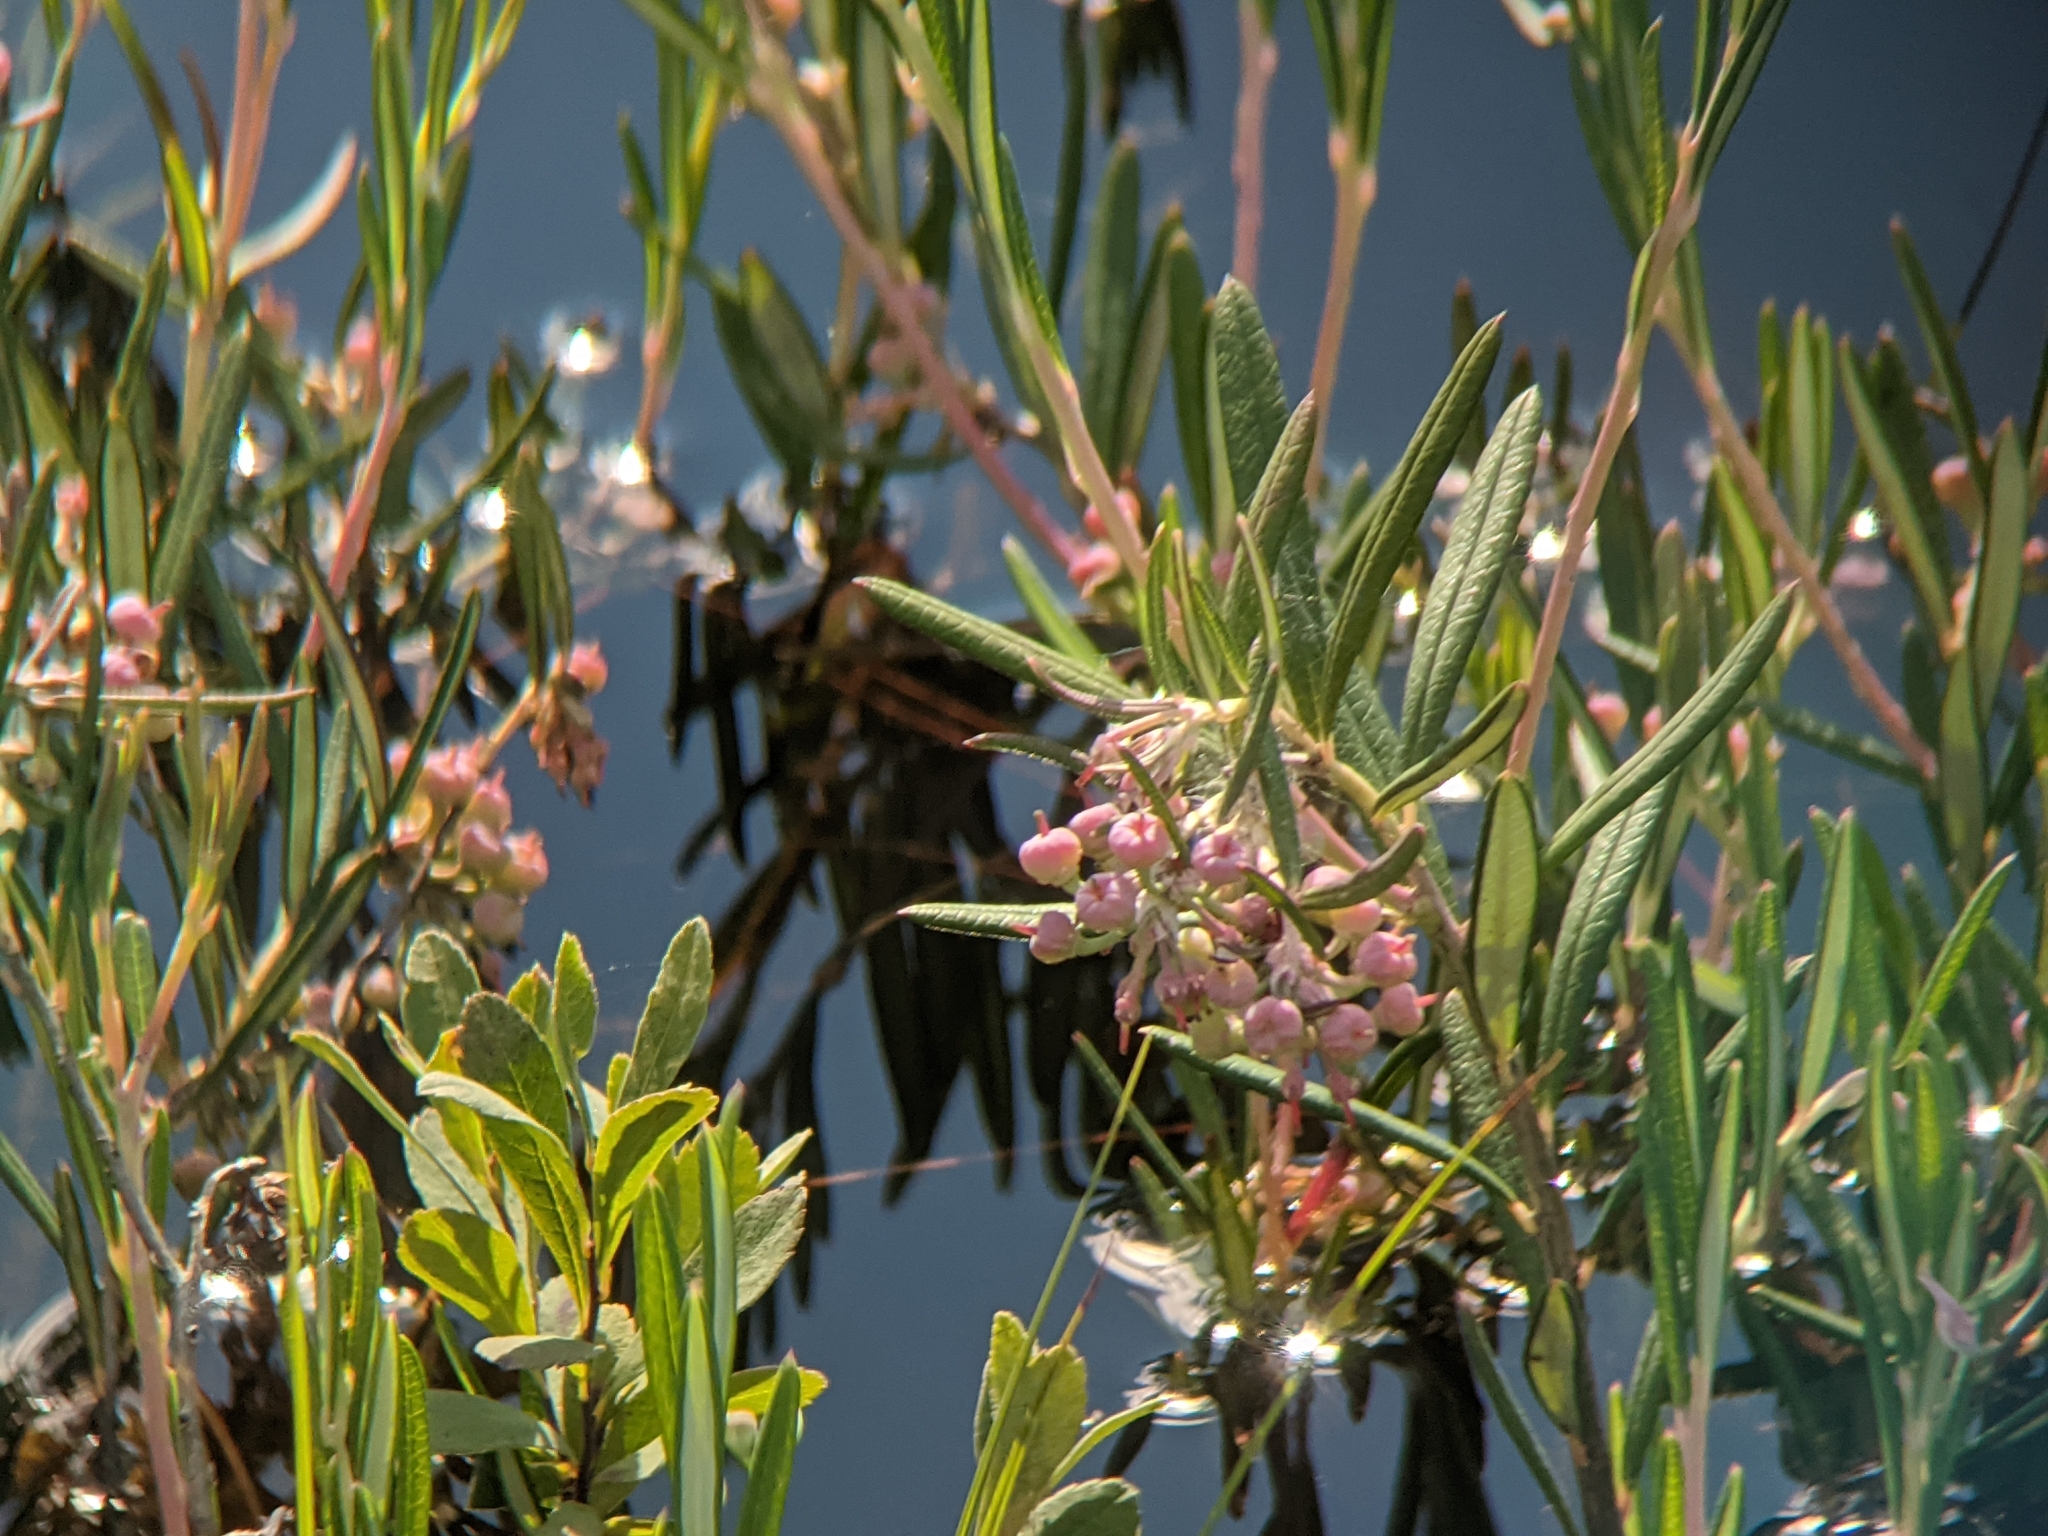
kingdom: Plantae
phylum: Tracheophyta
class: Magnoliopsida
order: Ericales
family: Ericaceae
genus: Andromeda
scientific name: Andromeda polifolia
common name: Bog-rosemary
